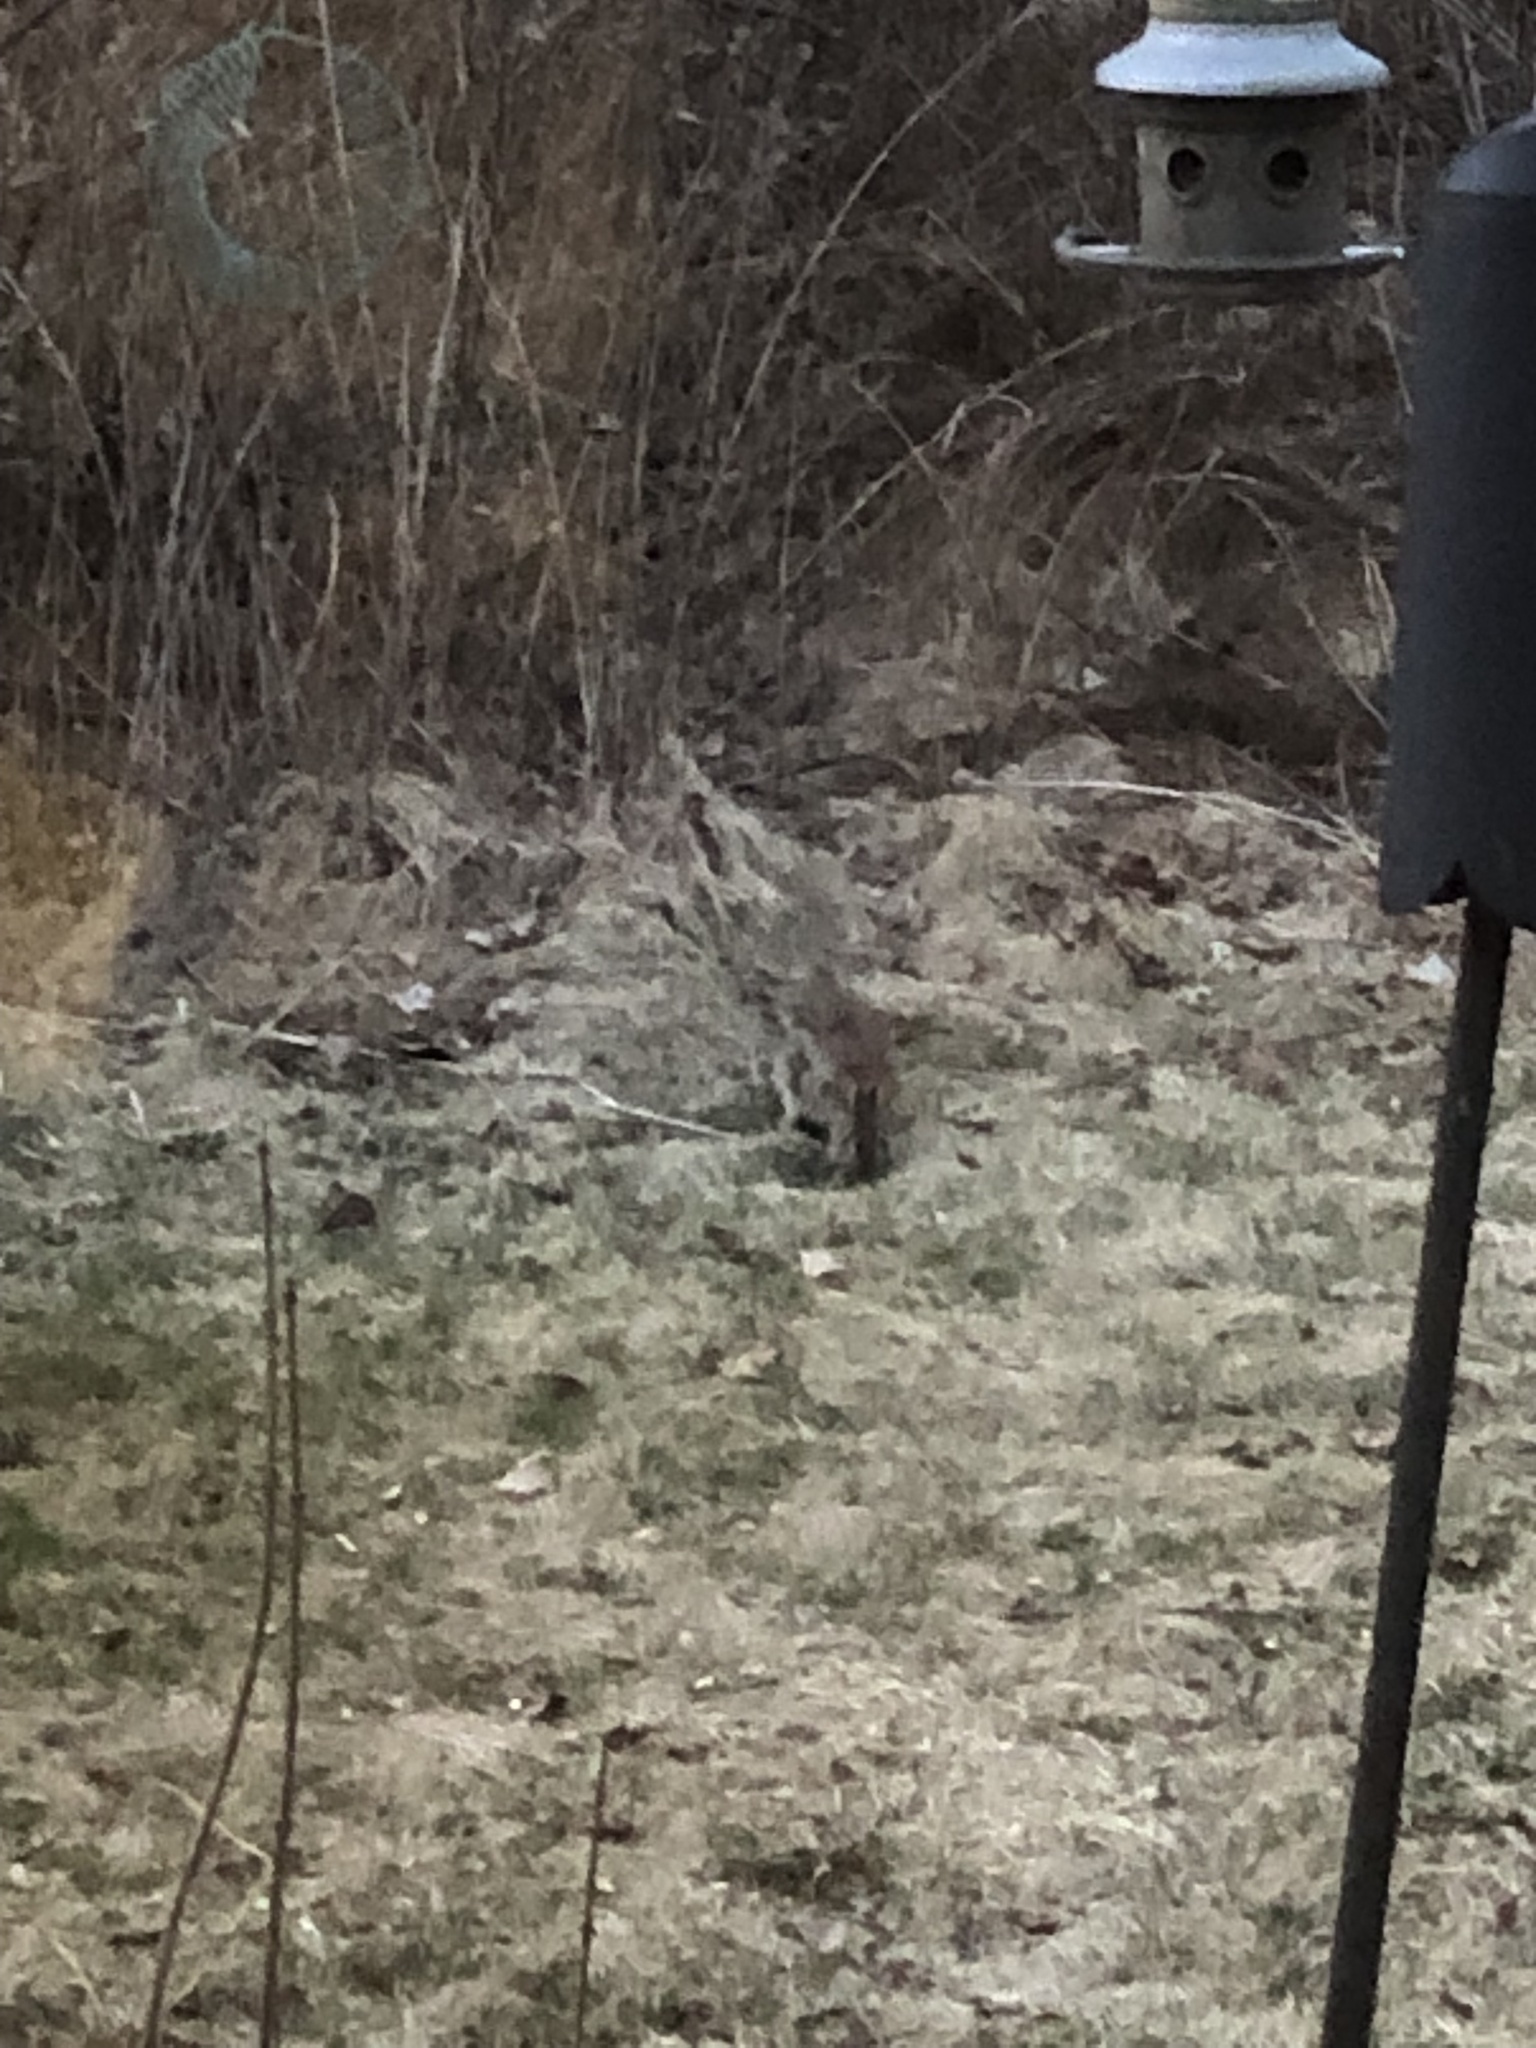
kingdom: Animalia
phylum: Chordata
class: Mammalia
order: Lagomorpha
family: Leporidae
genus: Sylvilagus
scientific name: Sylvilagus floridanus
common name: Eastern cottontail
